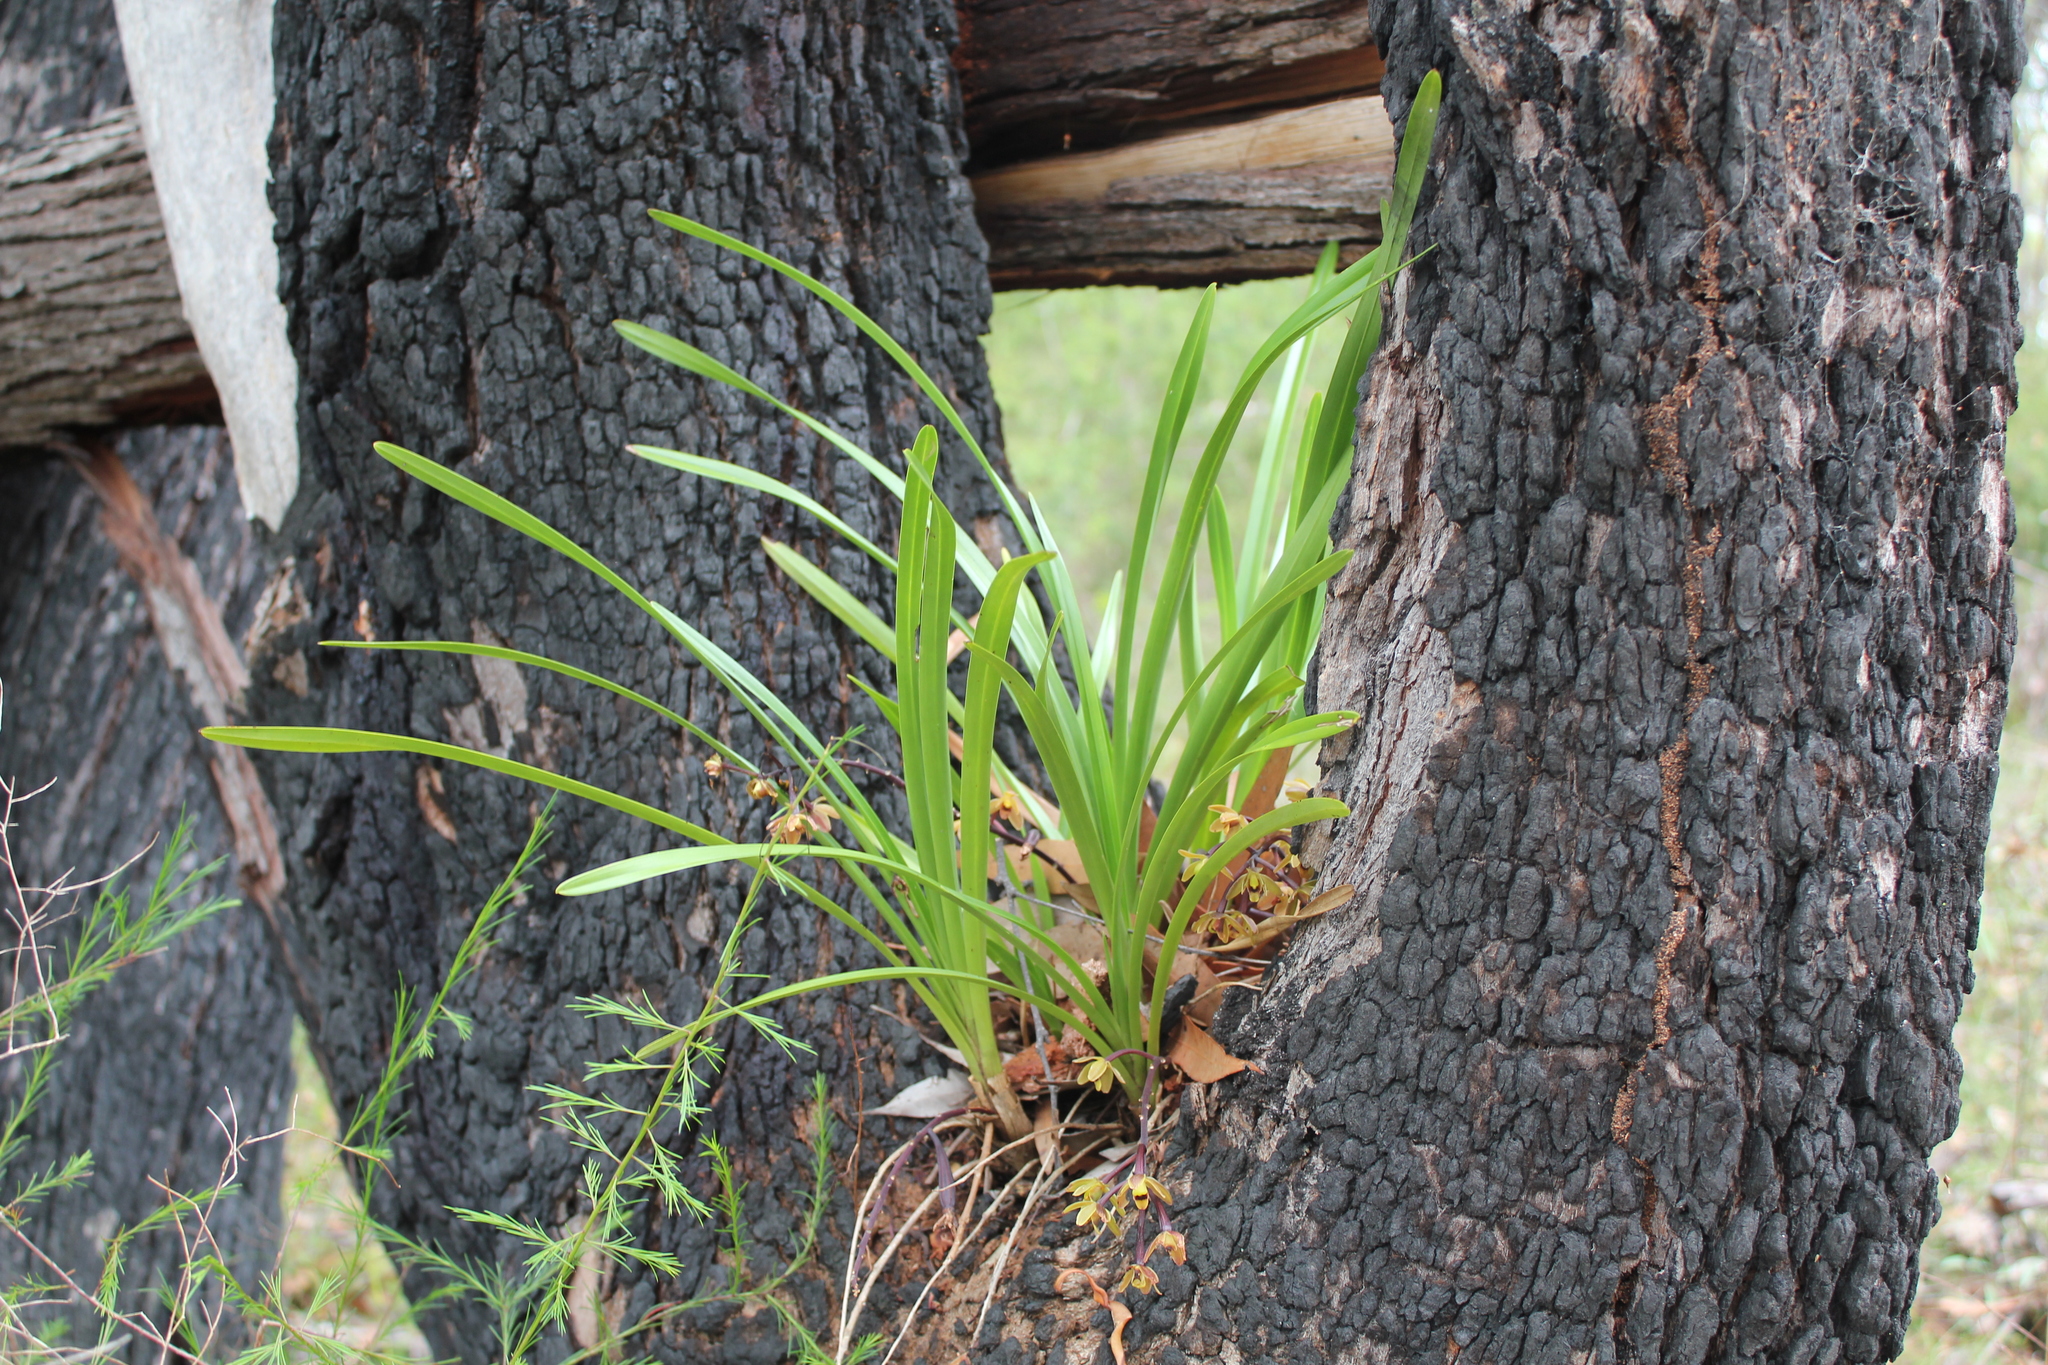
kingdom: Plantae
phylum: Tracheophyta
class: Liliopsida
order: Asparagales
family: Orchidaceae
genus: Cymbidium
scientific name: Cymbidium suave
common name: Snake orchid
